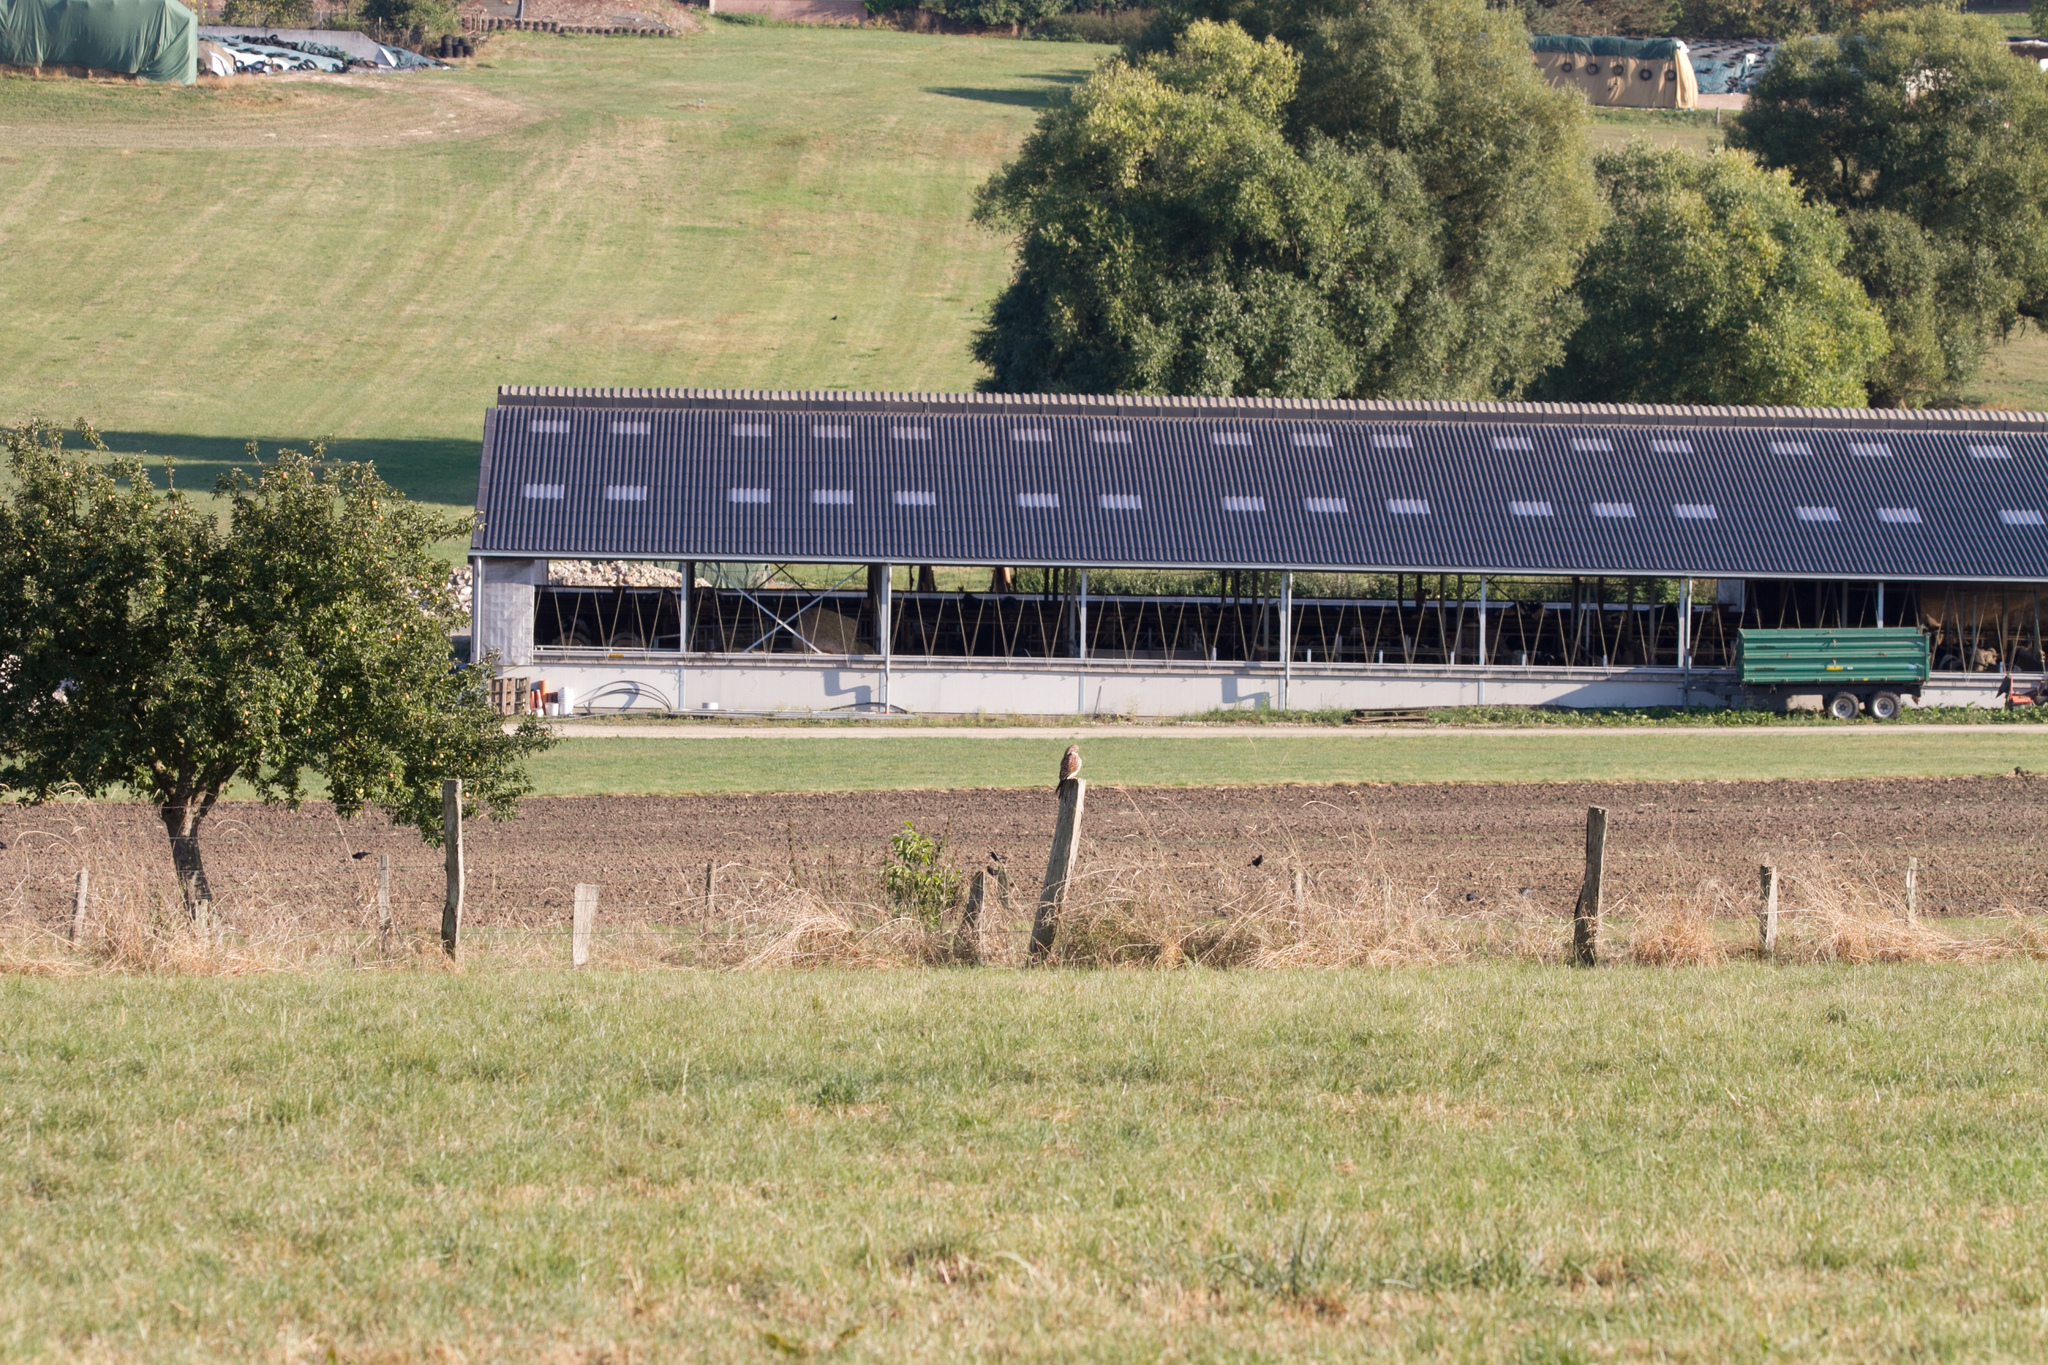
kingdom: Animalia
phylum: Chordata
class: Aves
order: Falconiformes
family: Falconidae
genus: Falco
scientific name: Falco tinnunculus
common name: Common kestrel
